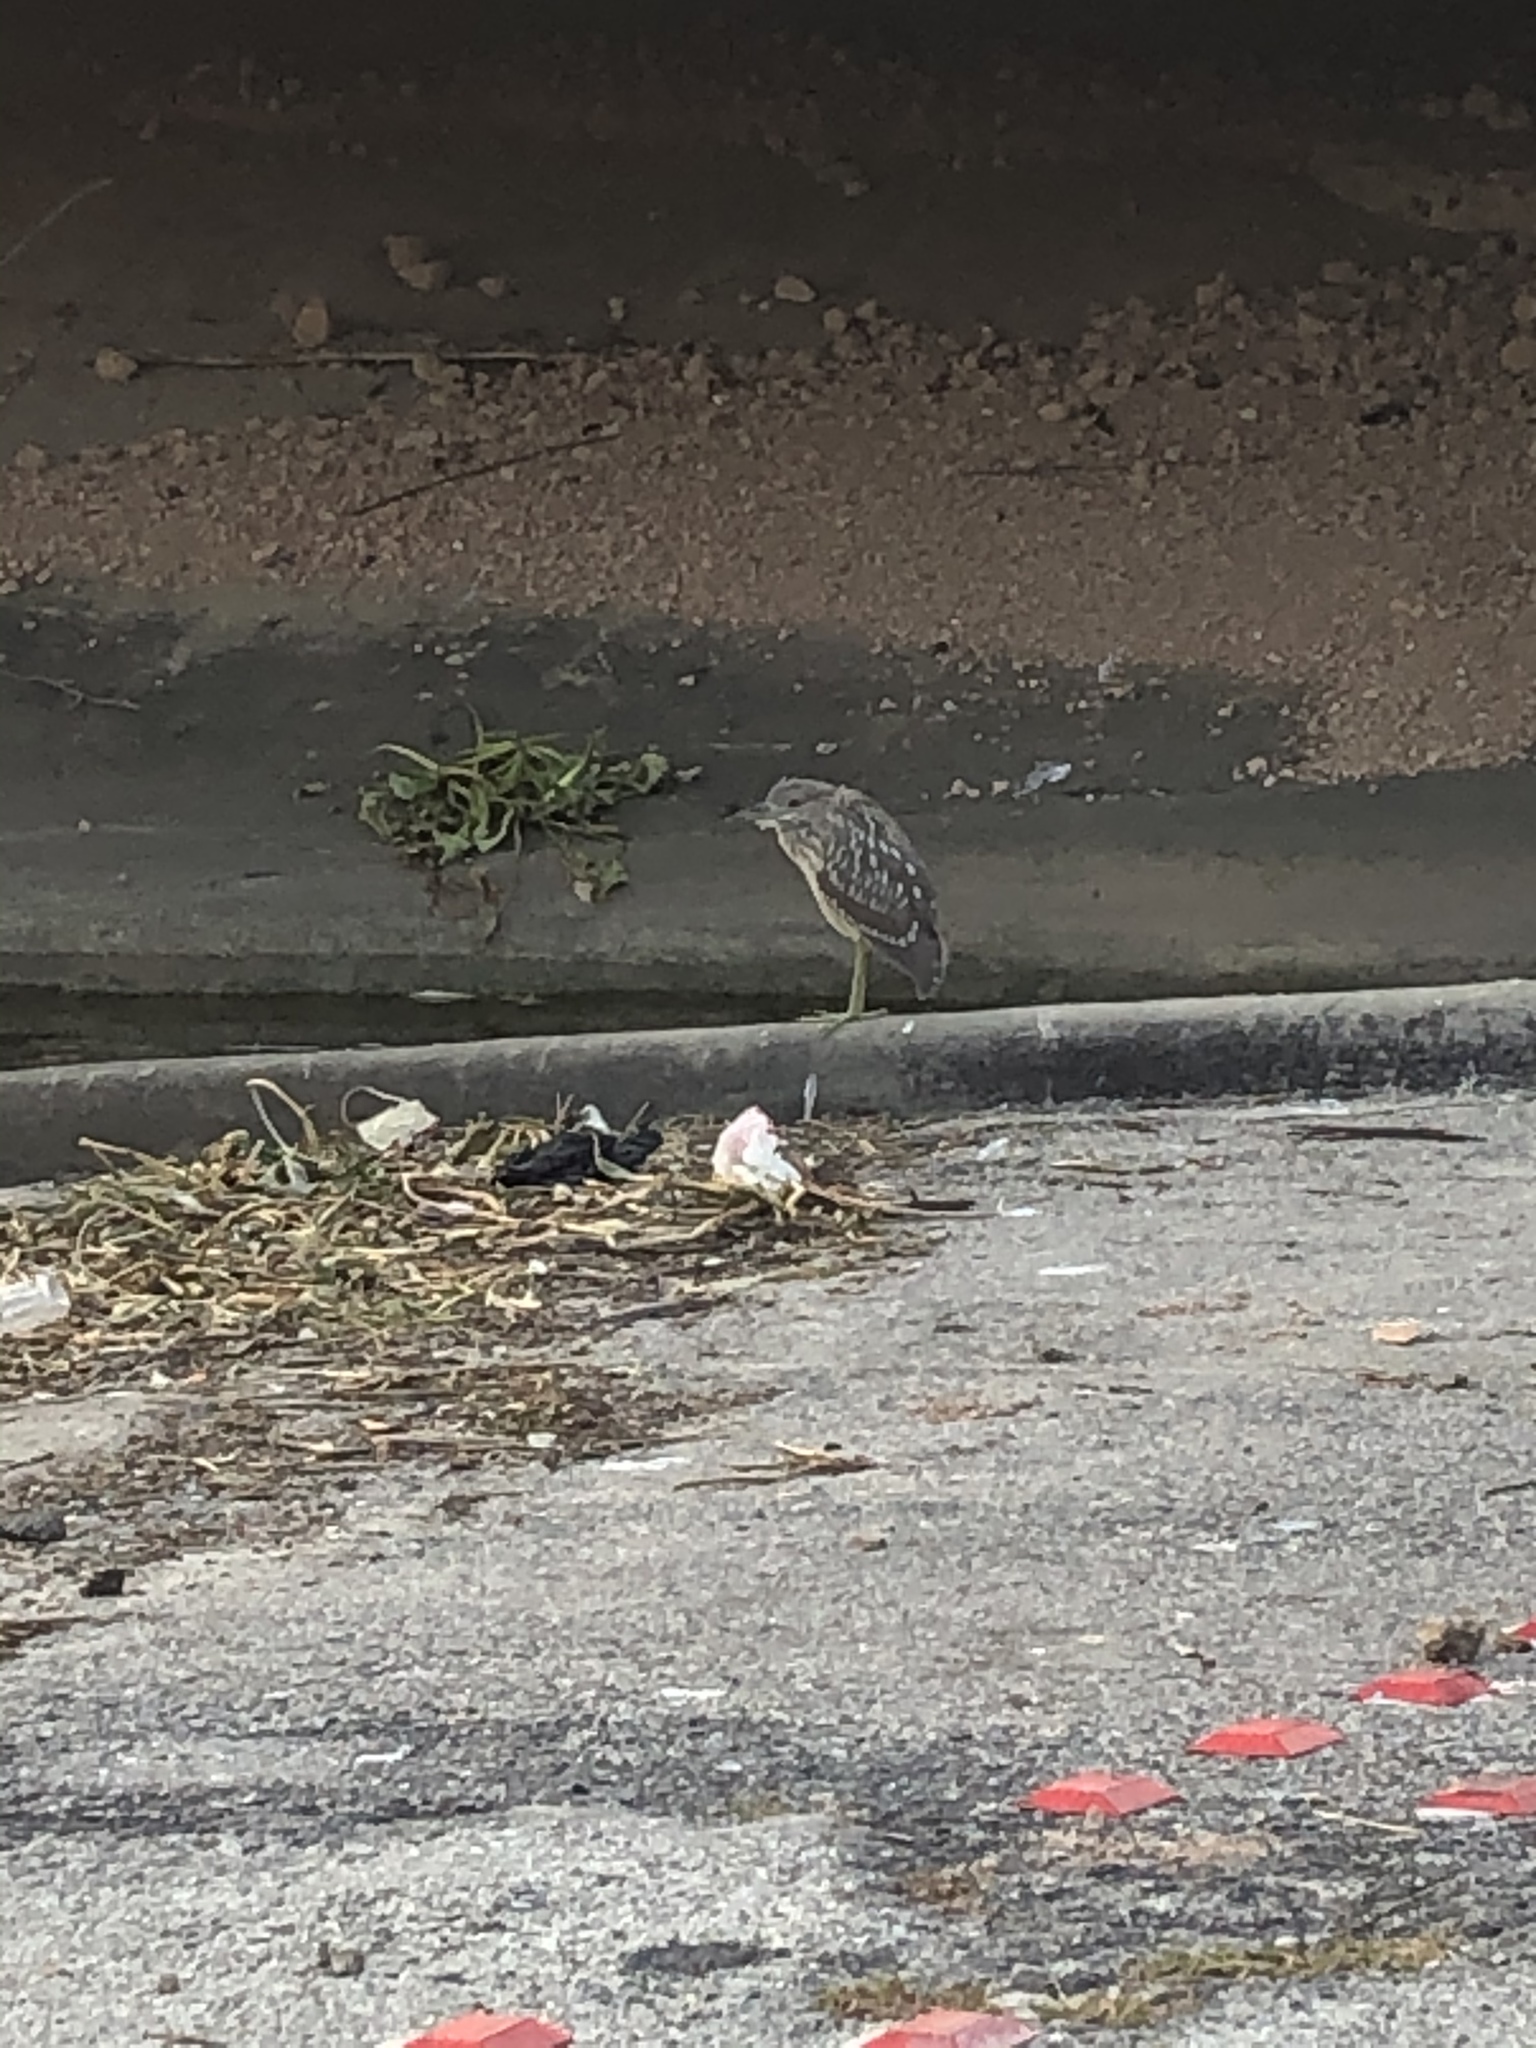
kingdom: Animalia
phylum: Chordata
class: Aves
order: Pelecaniformes
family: Ardeidae
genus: Nycticorax
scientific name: Nycticorax nycticorax
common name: Black-crowned night heron
